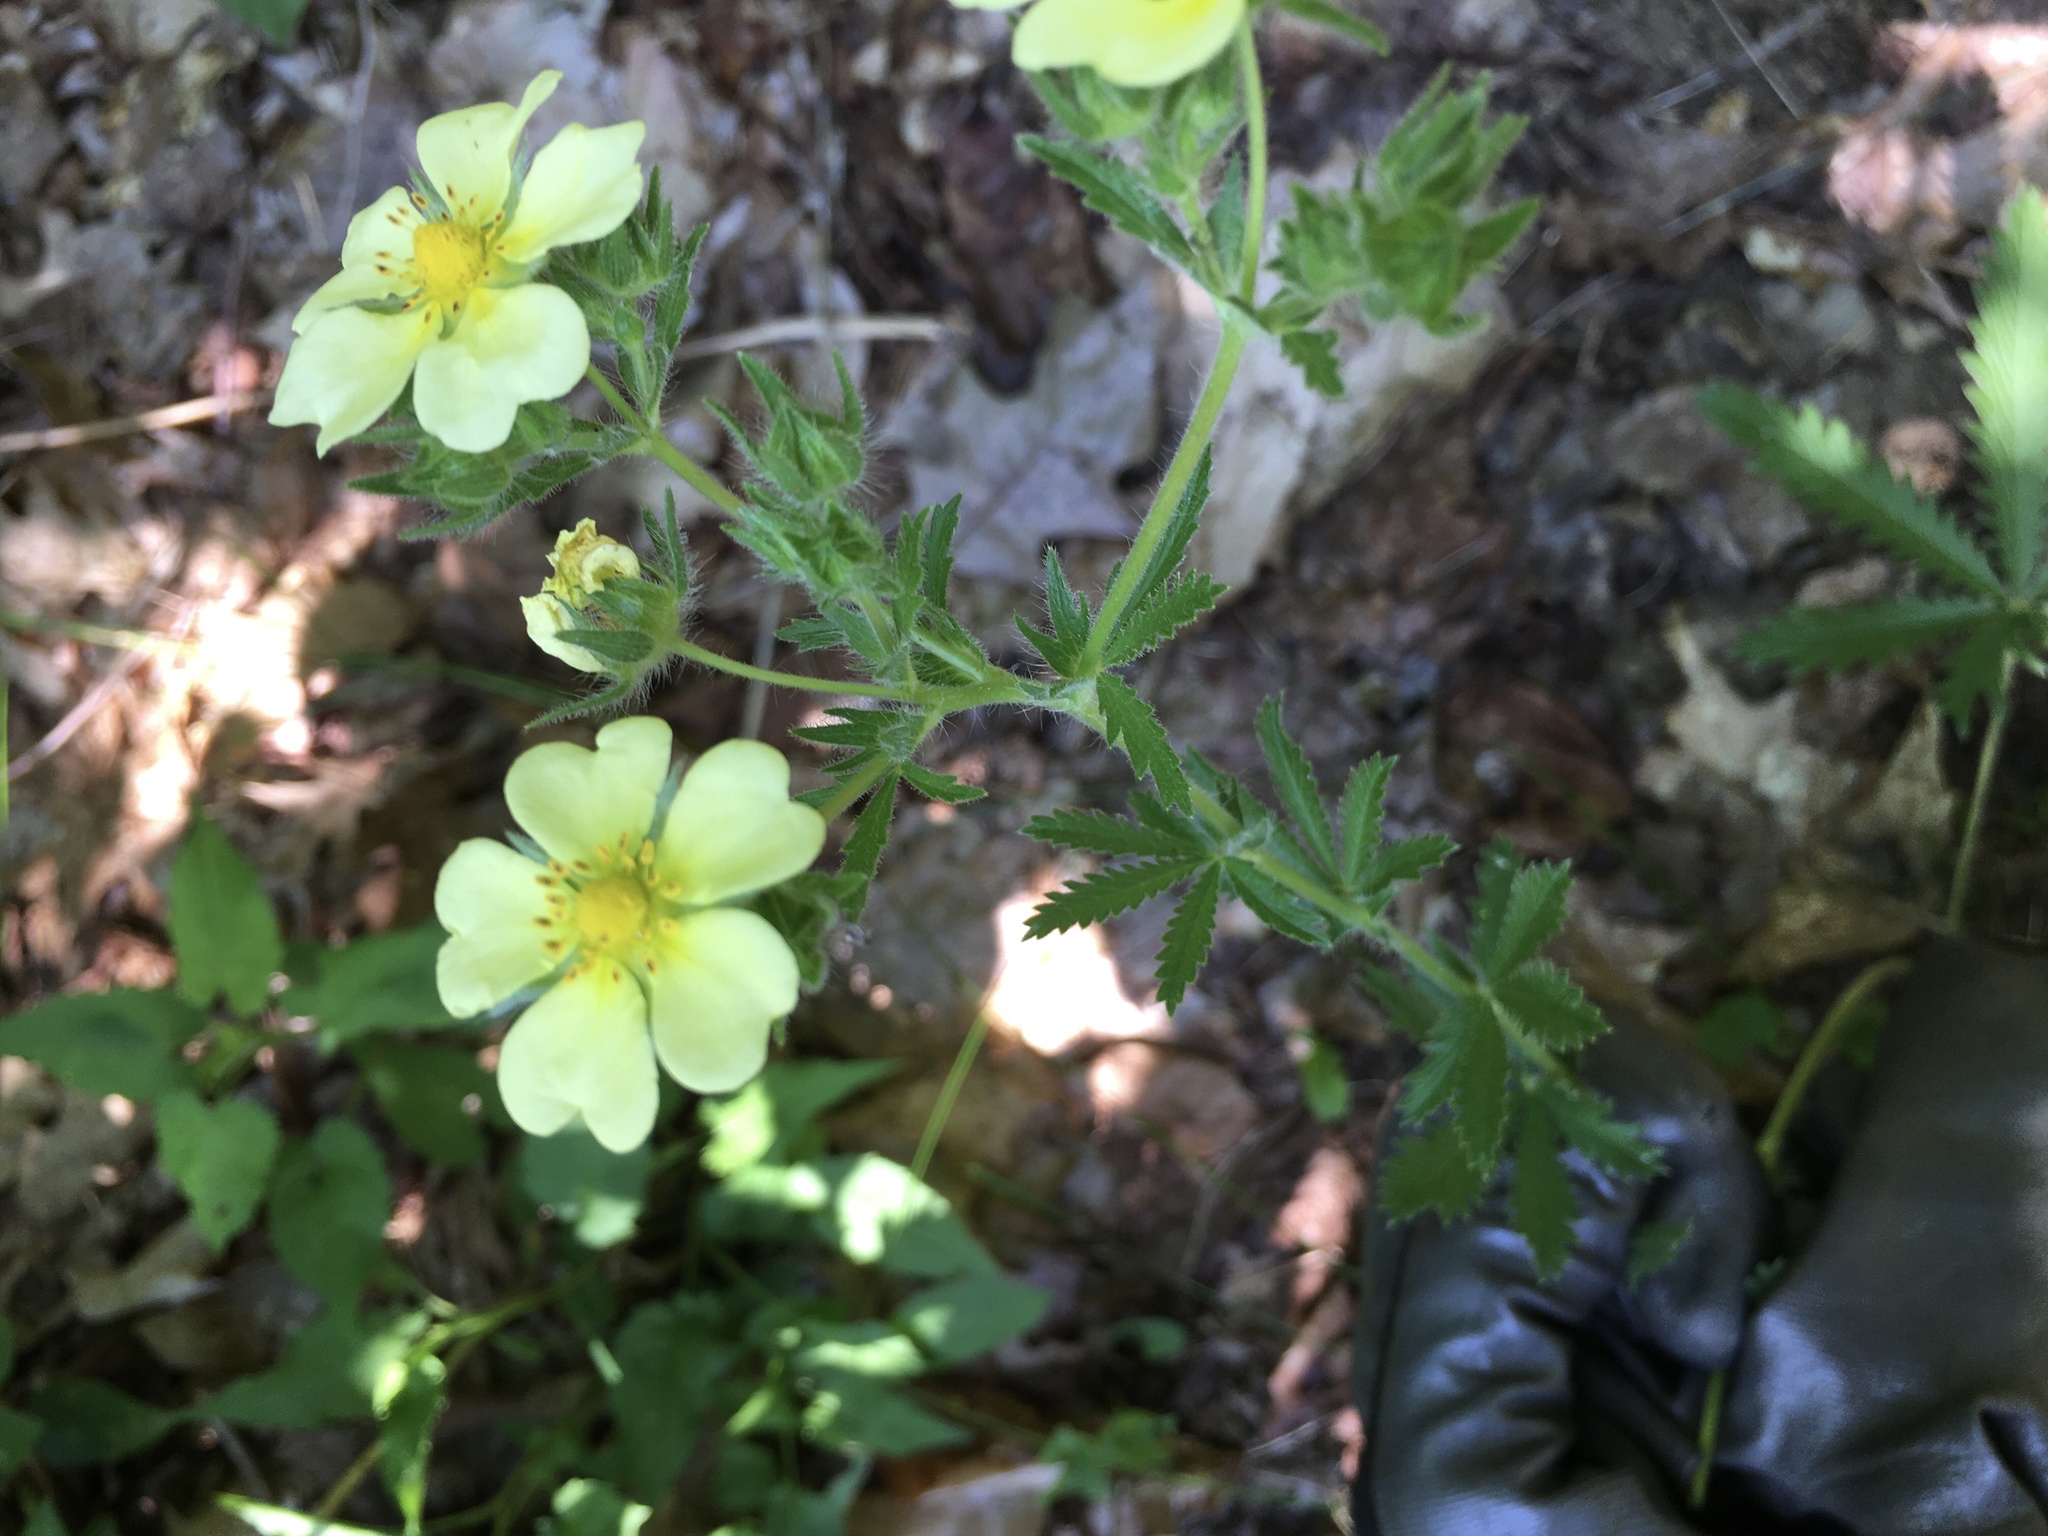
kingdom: Plantae
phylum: Tracheophyta
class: Magnoliopsida
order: Rosales
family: Rosaceae
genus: Potentilla
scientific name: Potentilla recta
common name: Sulphur cinquefoil
